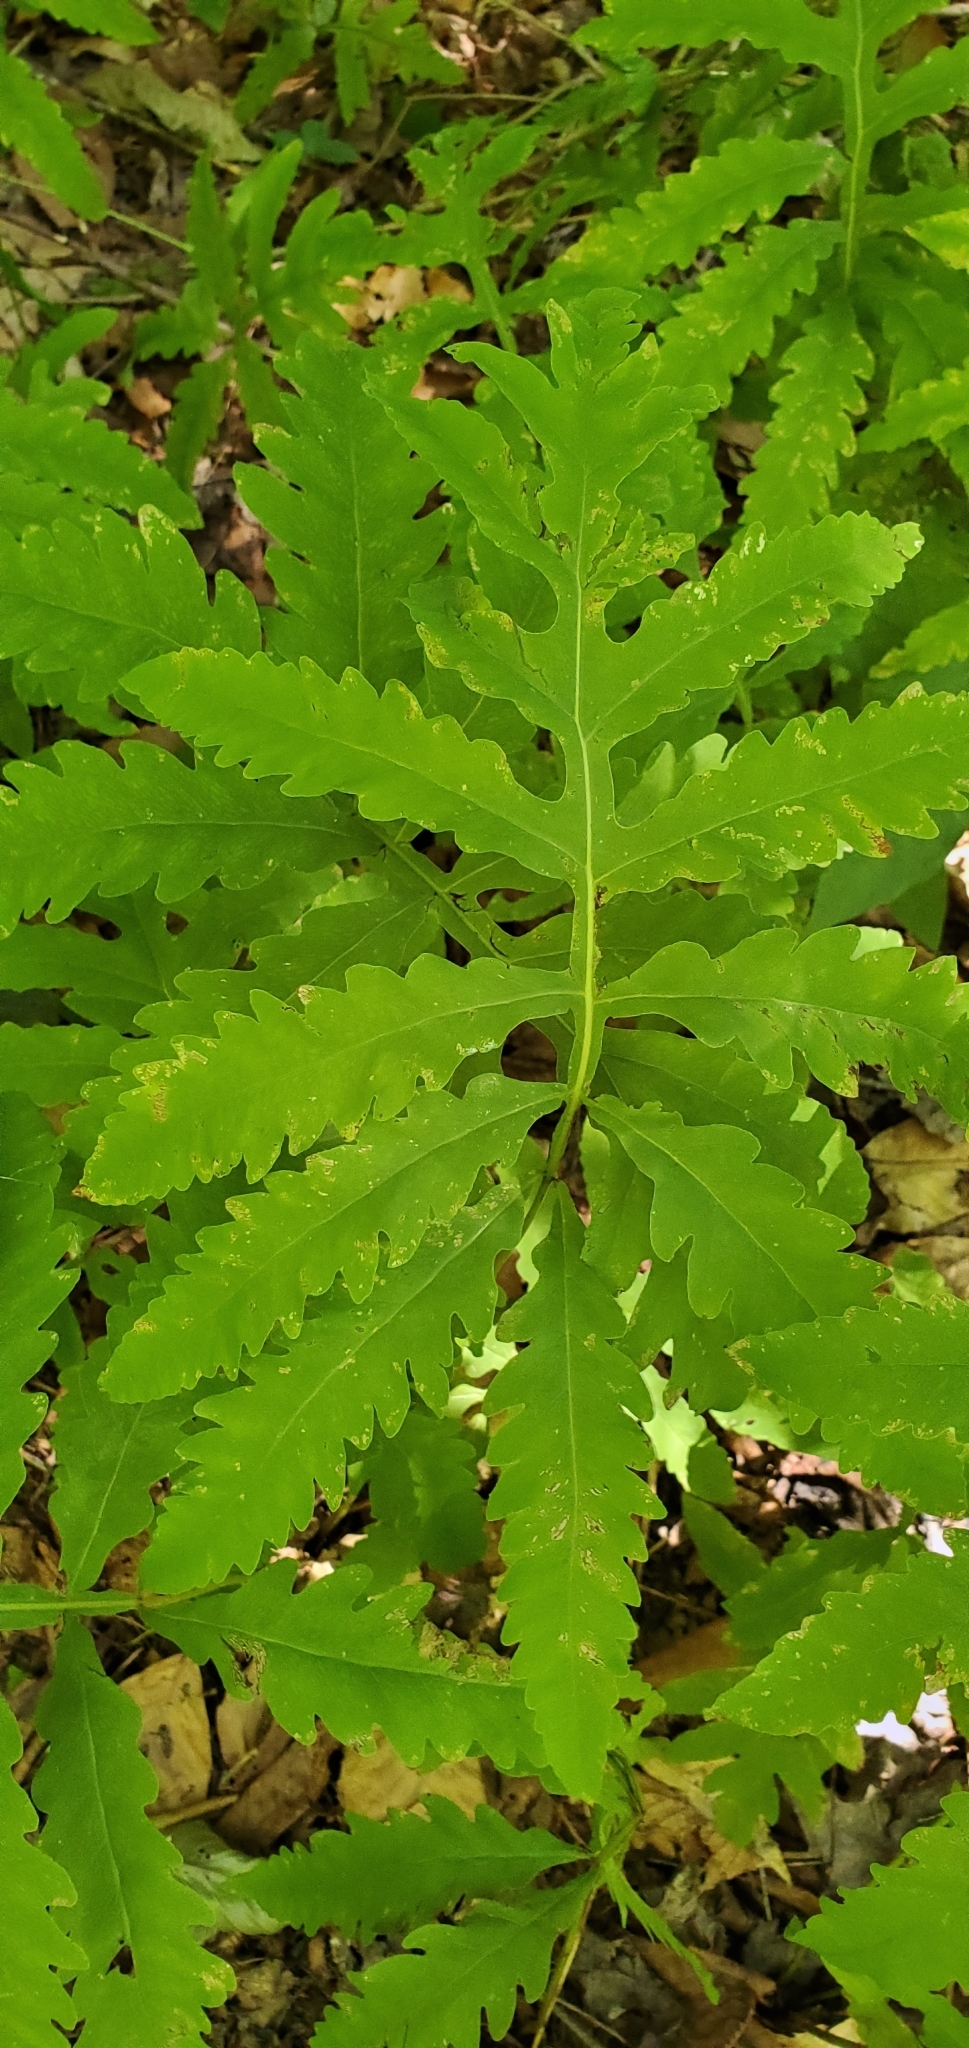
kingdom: Plantae
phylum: Tracheophyta
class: Polypodiopsida
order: Polypodiales
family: Onocleaceae
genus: Onoclea
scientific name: Onoclea sensibilis
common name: Sensitive fern
